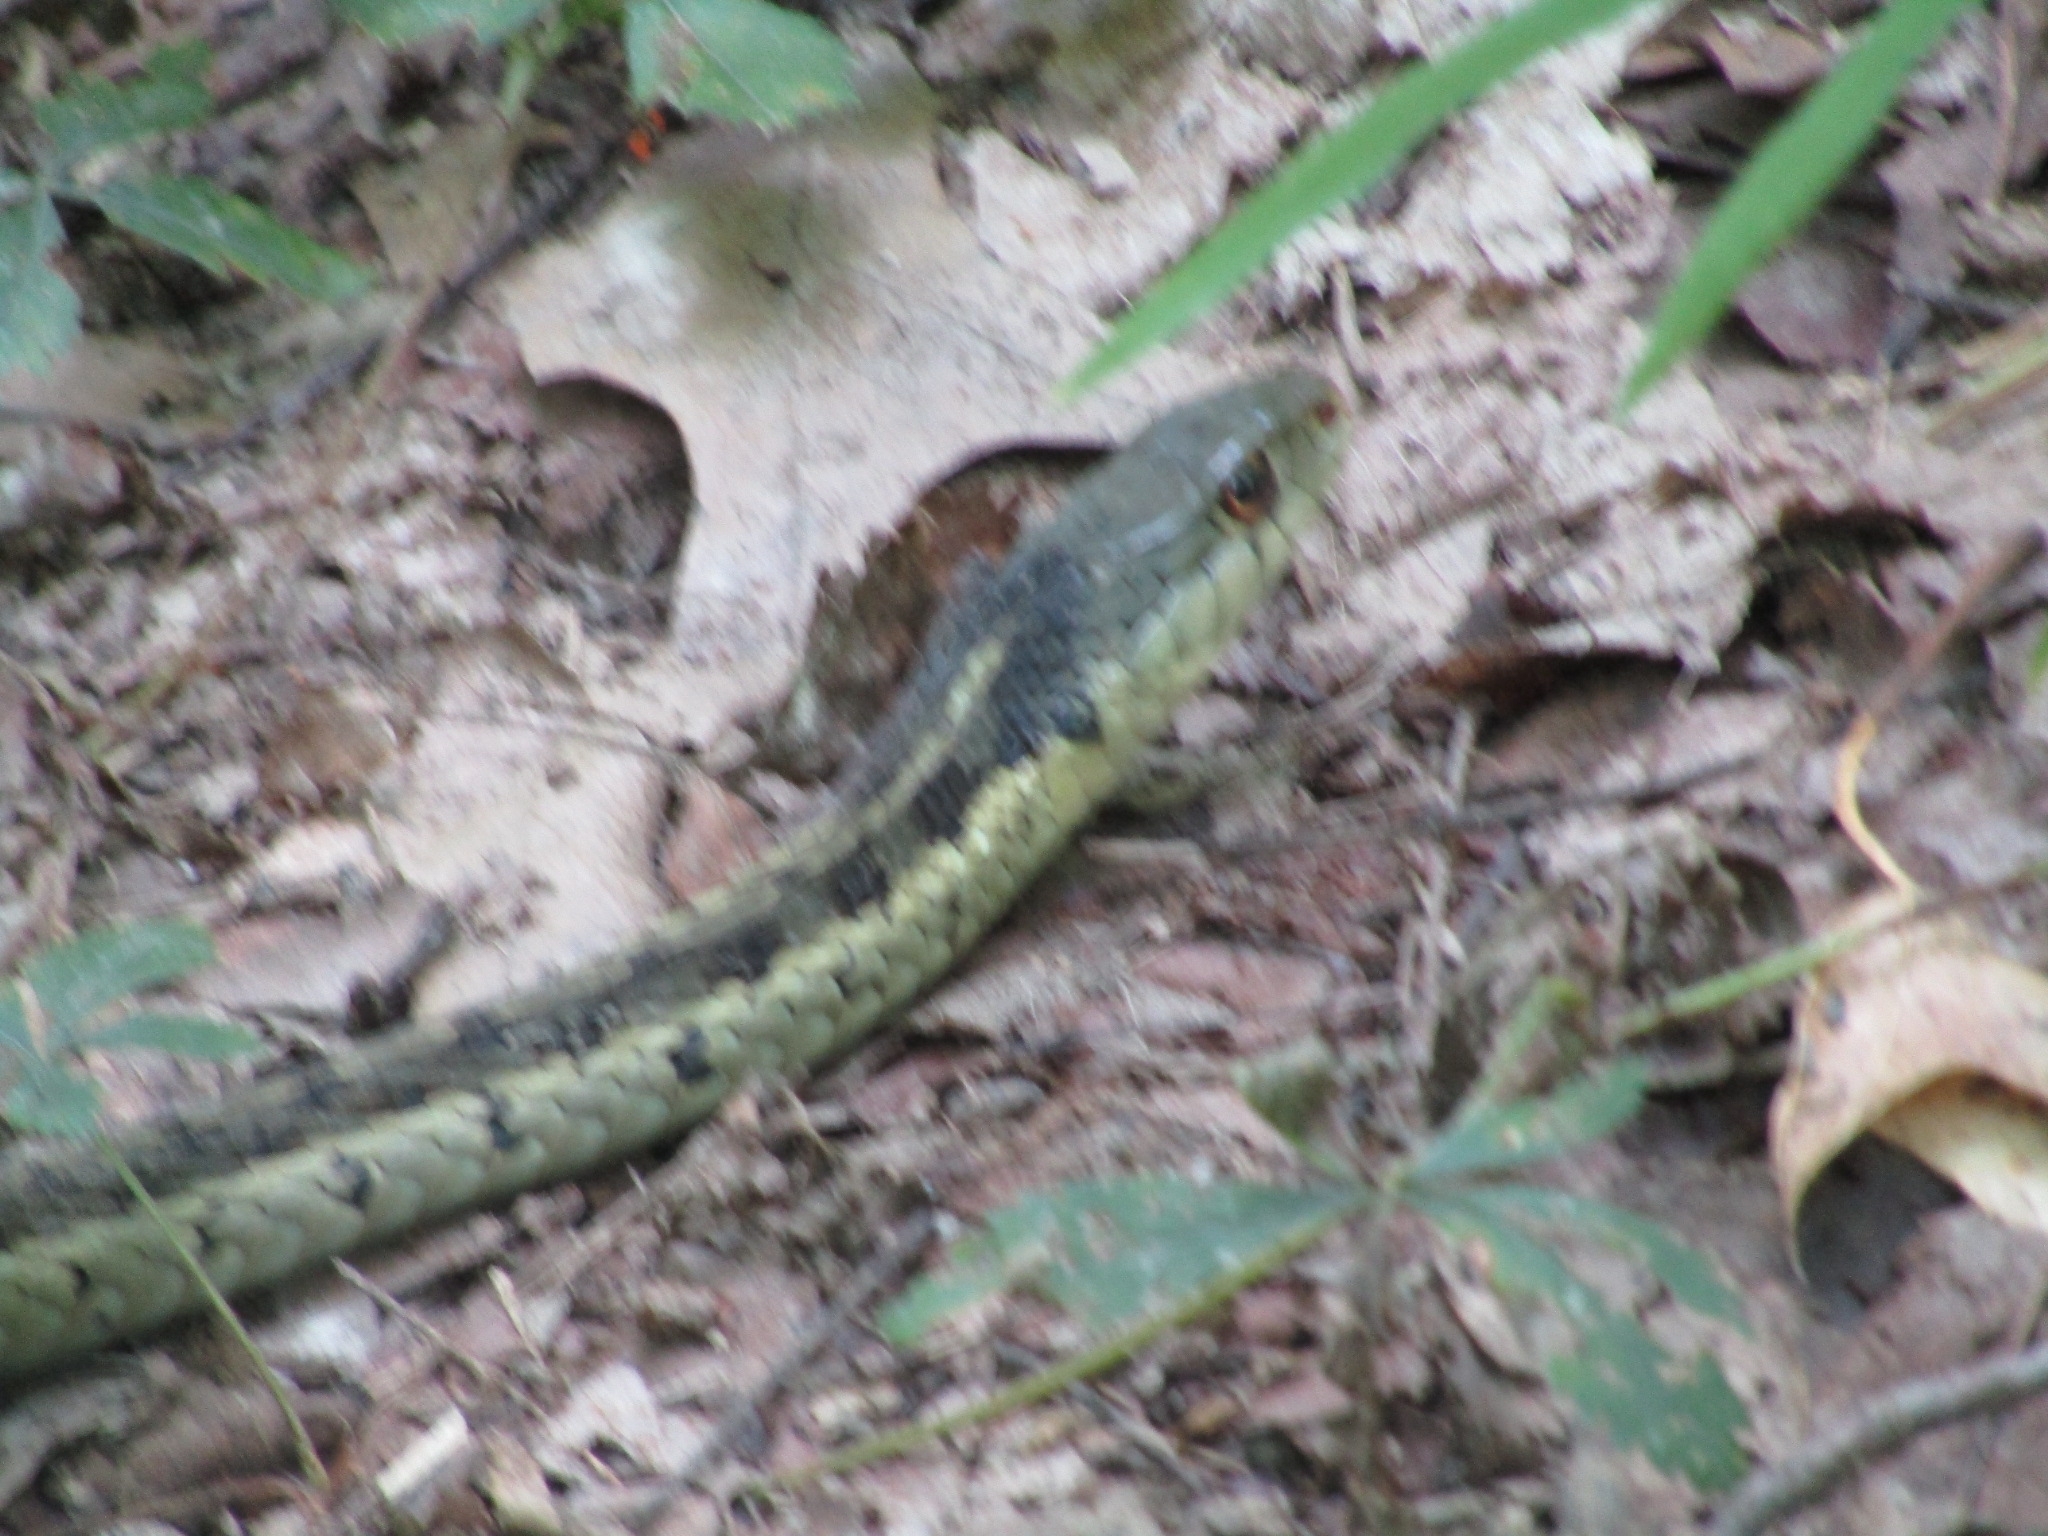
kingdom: Animalia
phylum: Chordata
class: Squamata
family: Colubridae
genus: Thamnophis
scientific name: Thamnophis sirtalis
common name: Common garter snake
